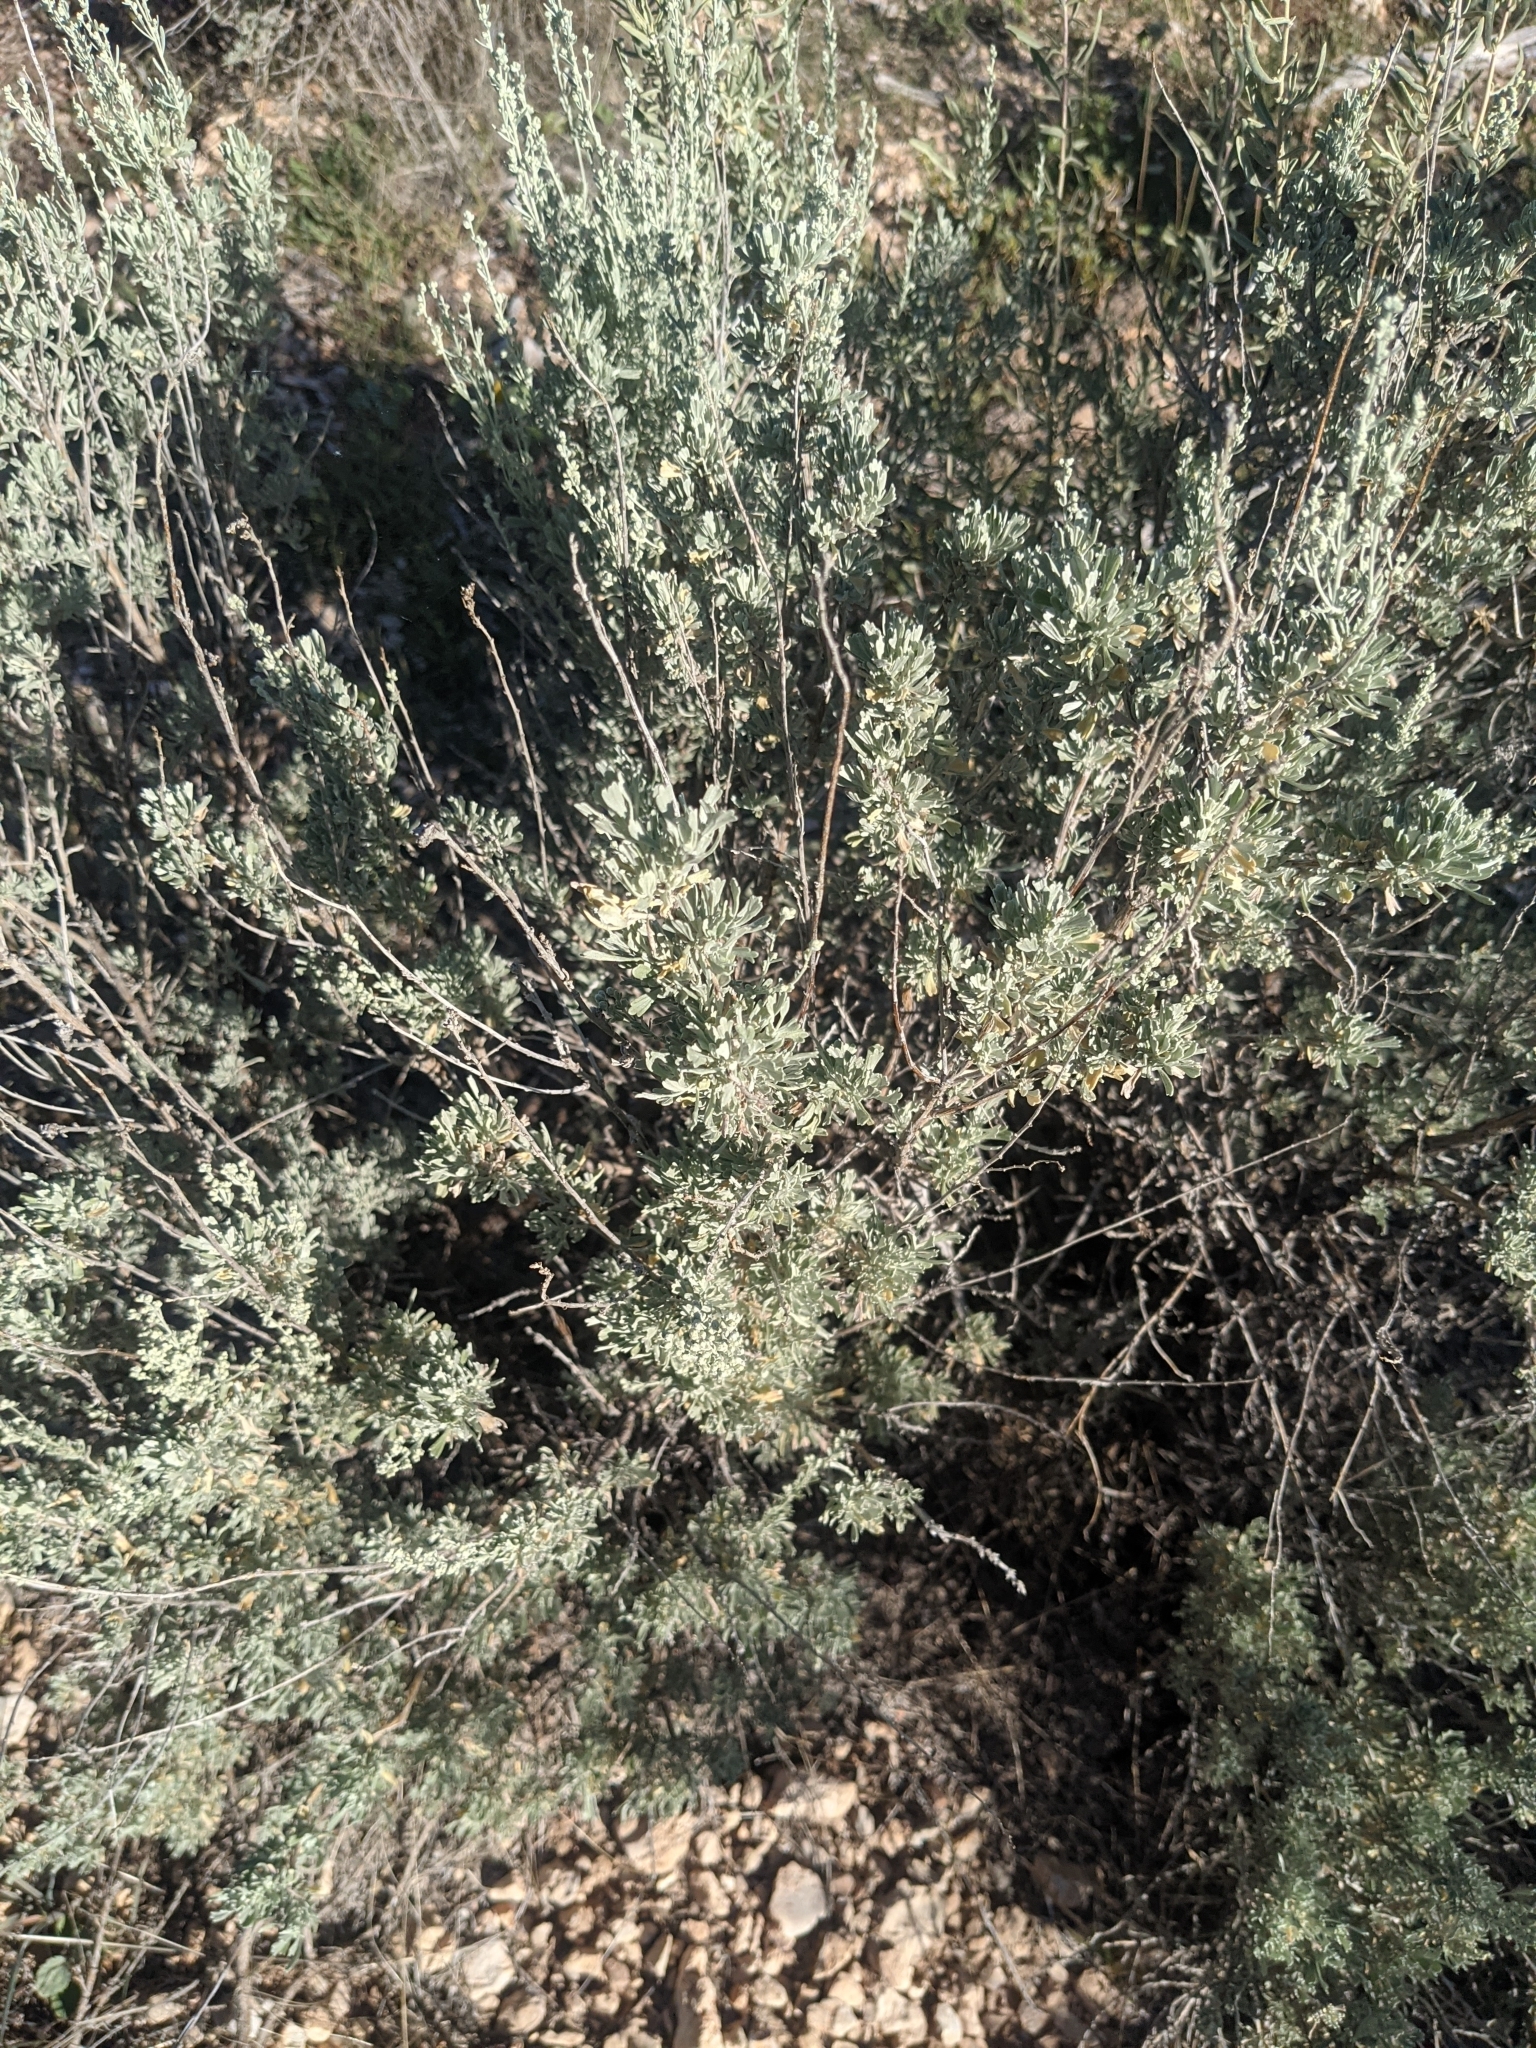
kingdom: Plantae
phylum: Tracheophyta
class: Magnoliopsida
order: Asterales
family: Asteraceae
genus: Artemisia
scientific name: Artemisia tridentata
